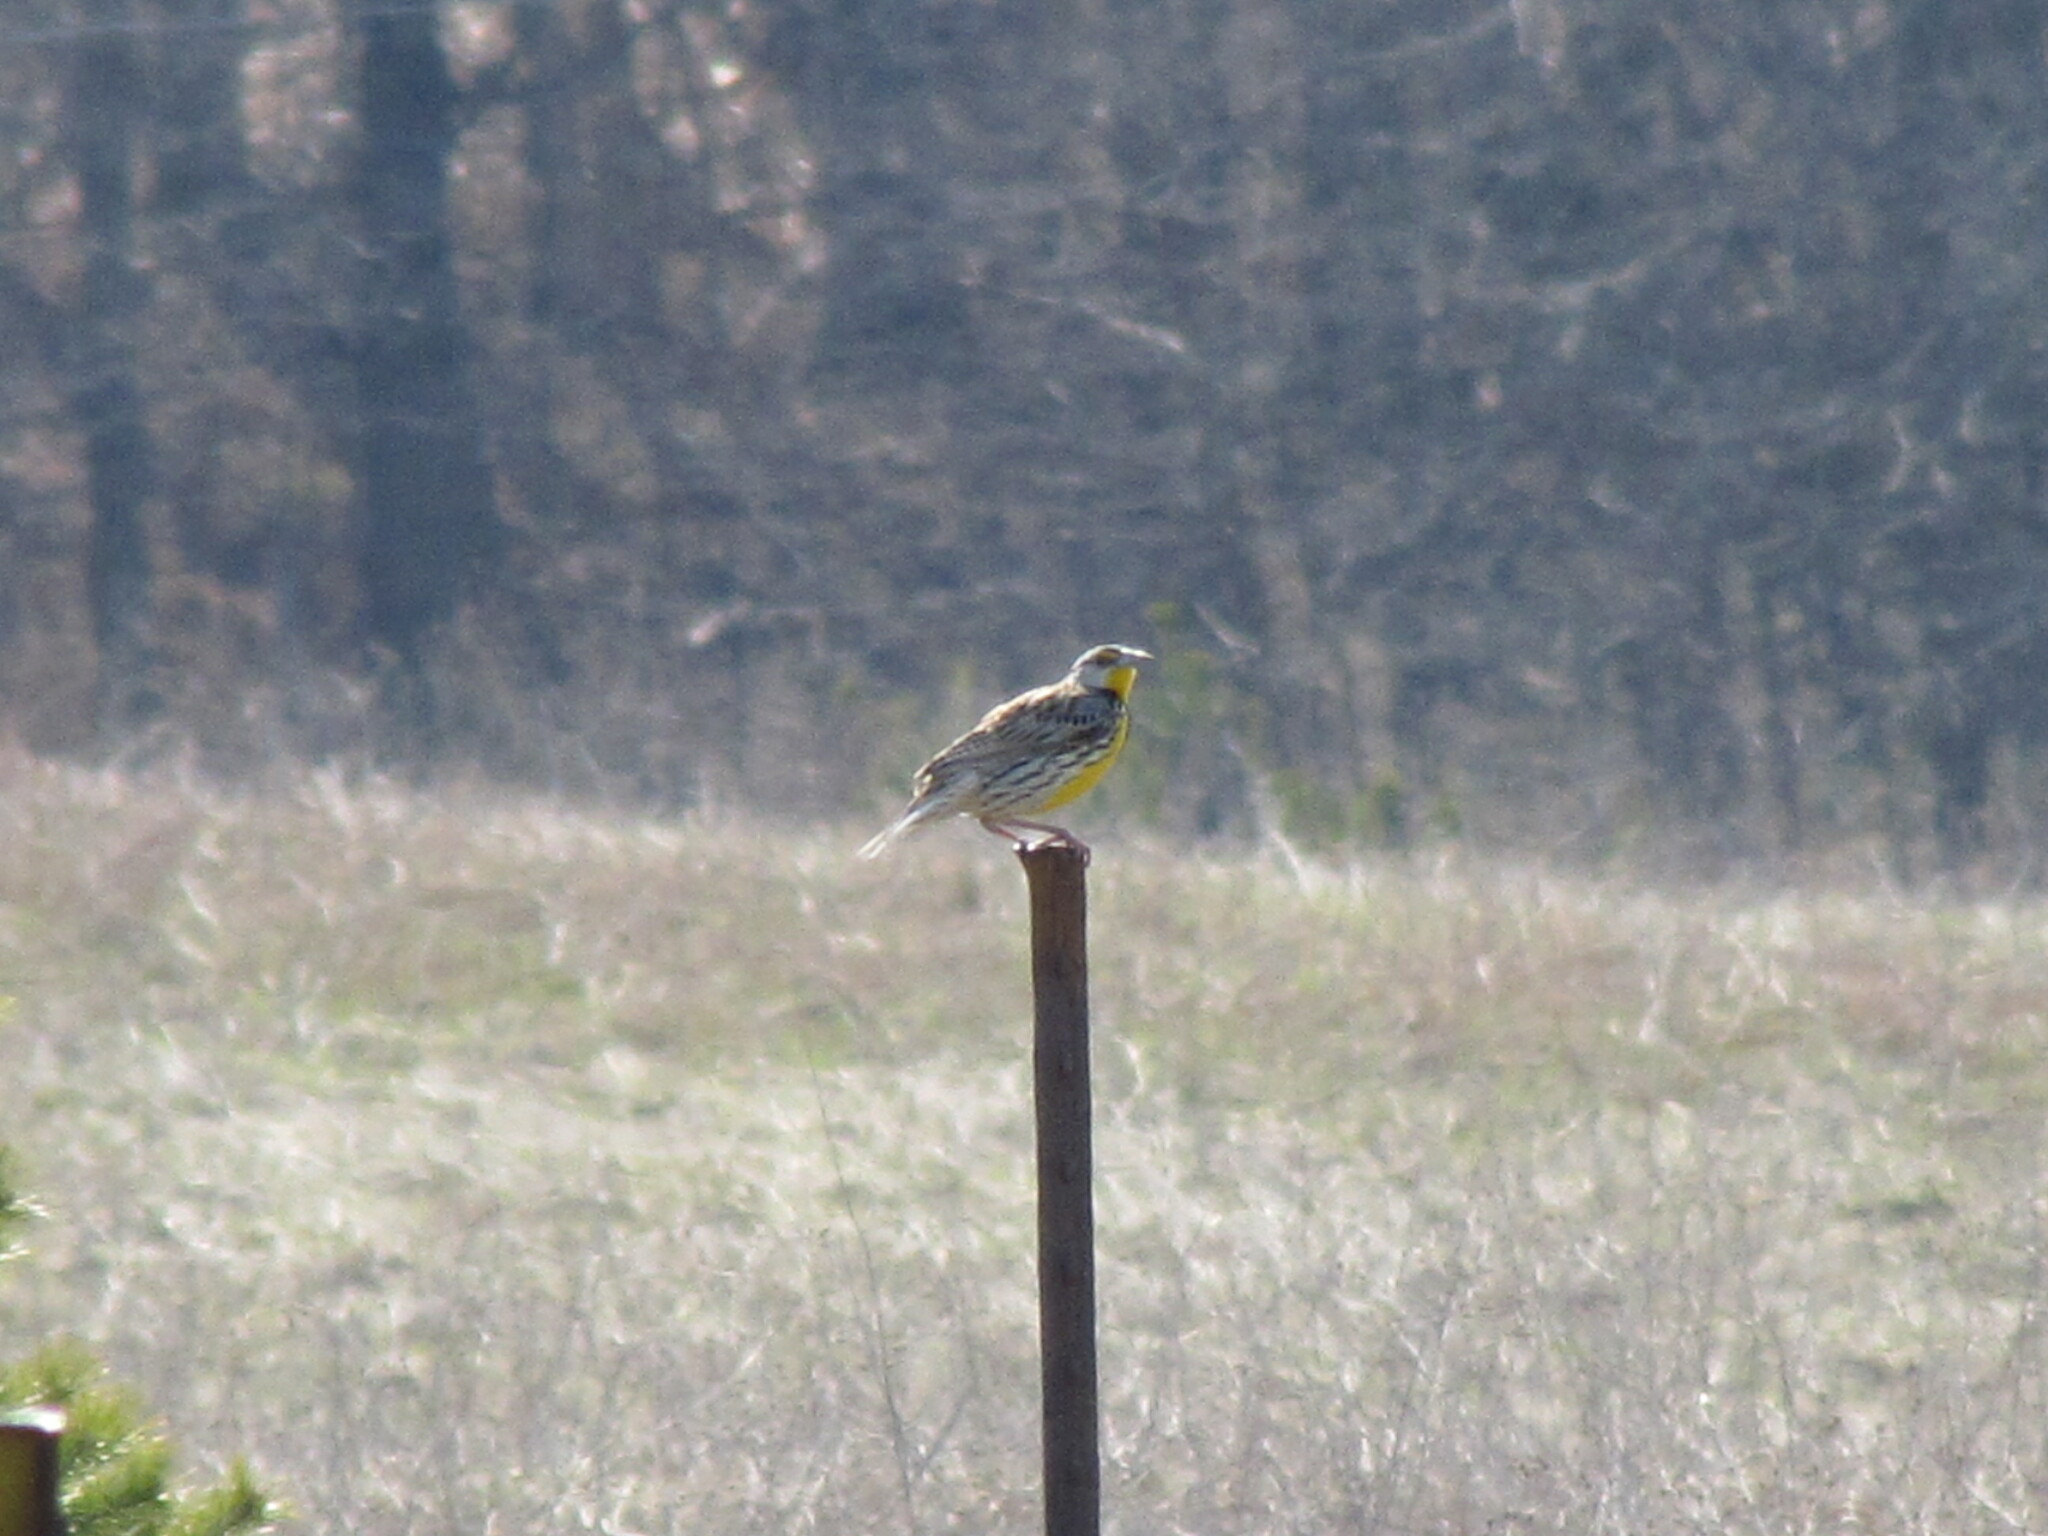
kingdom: Animalia
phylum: Chordata
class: Aves
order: Passeriformes
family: Icteridae
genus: Sturnella
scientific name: Sturnella magna
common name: Eastern meadowlark
